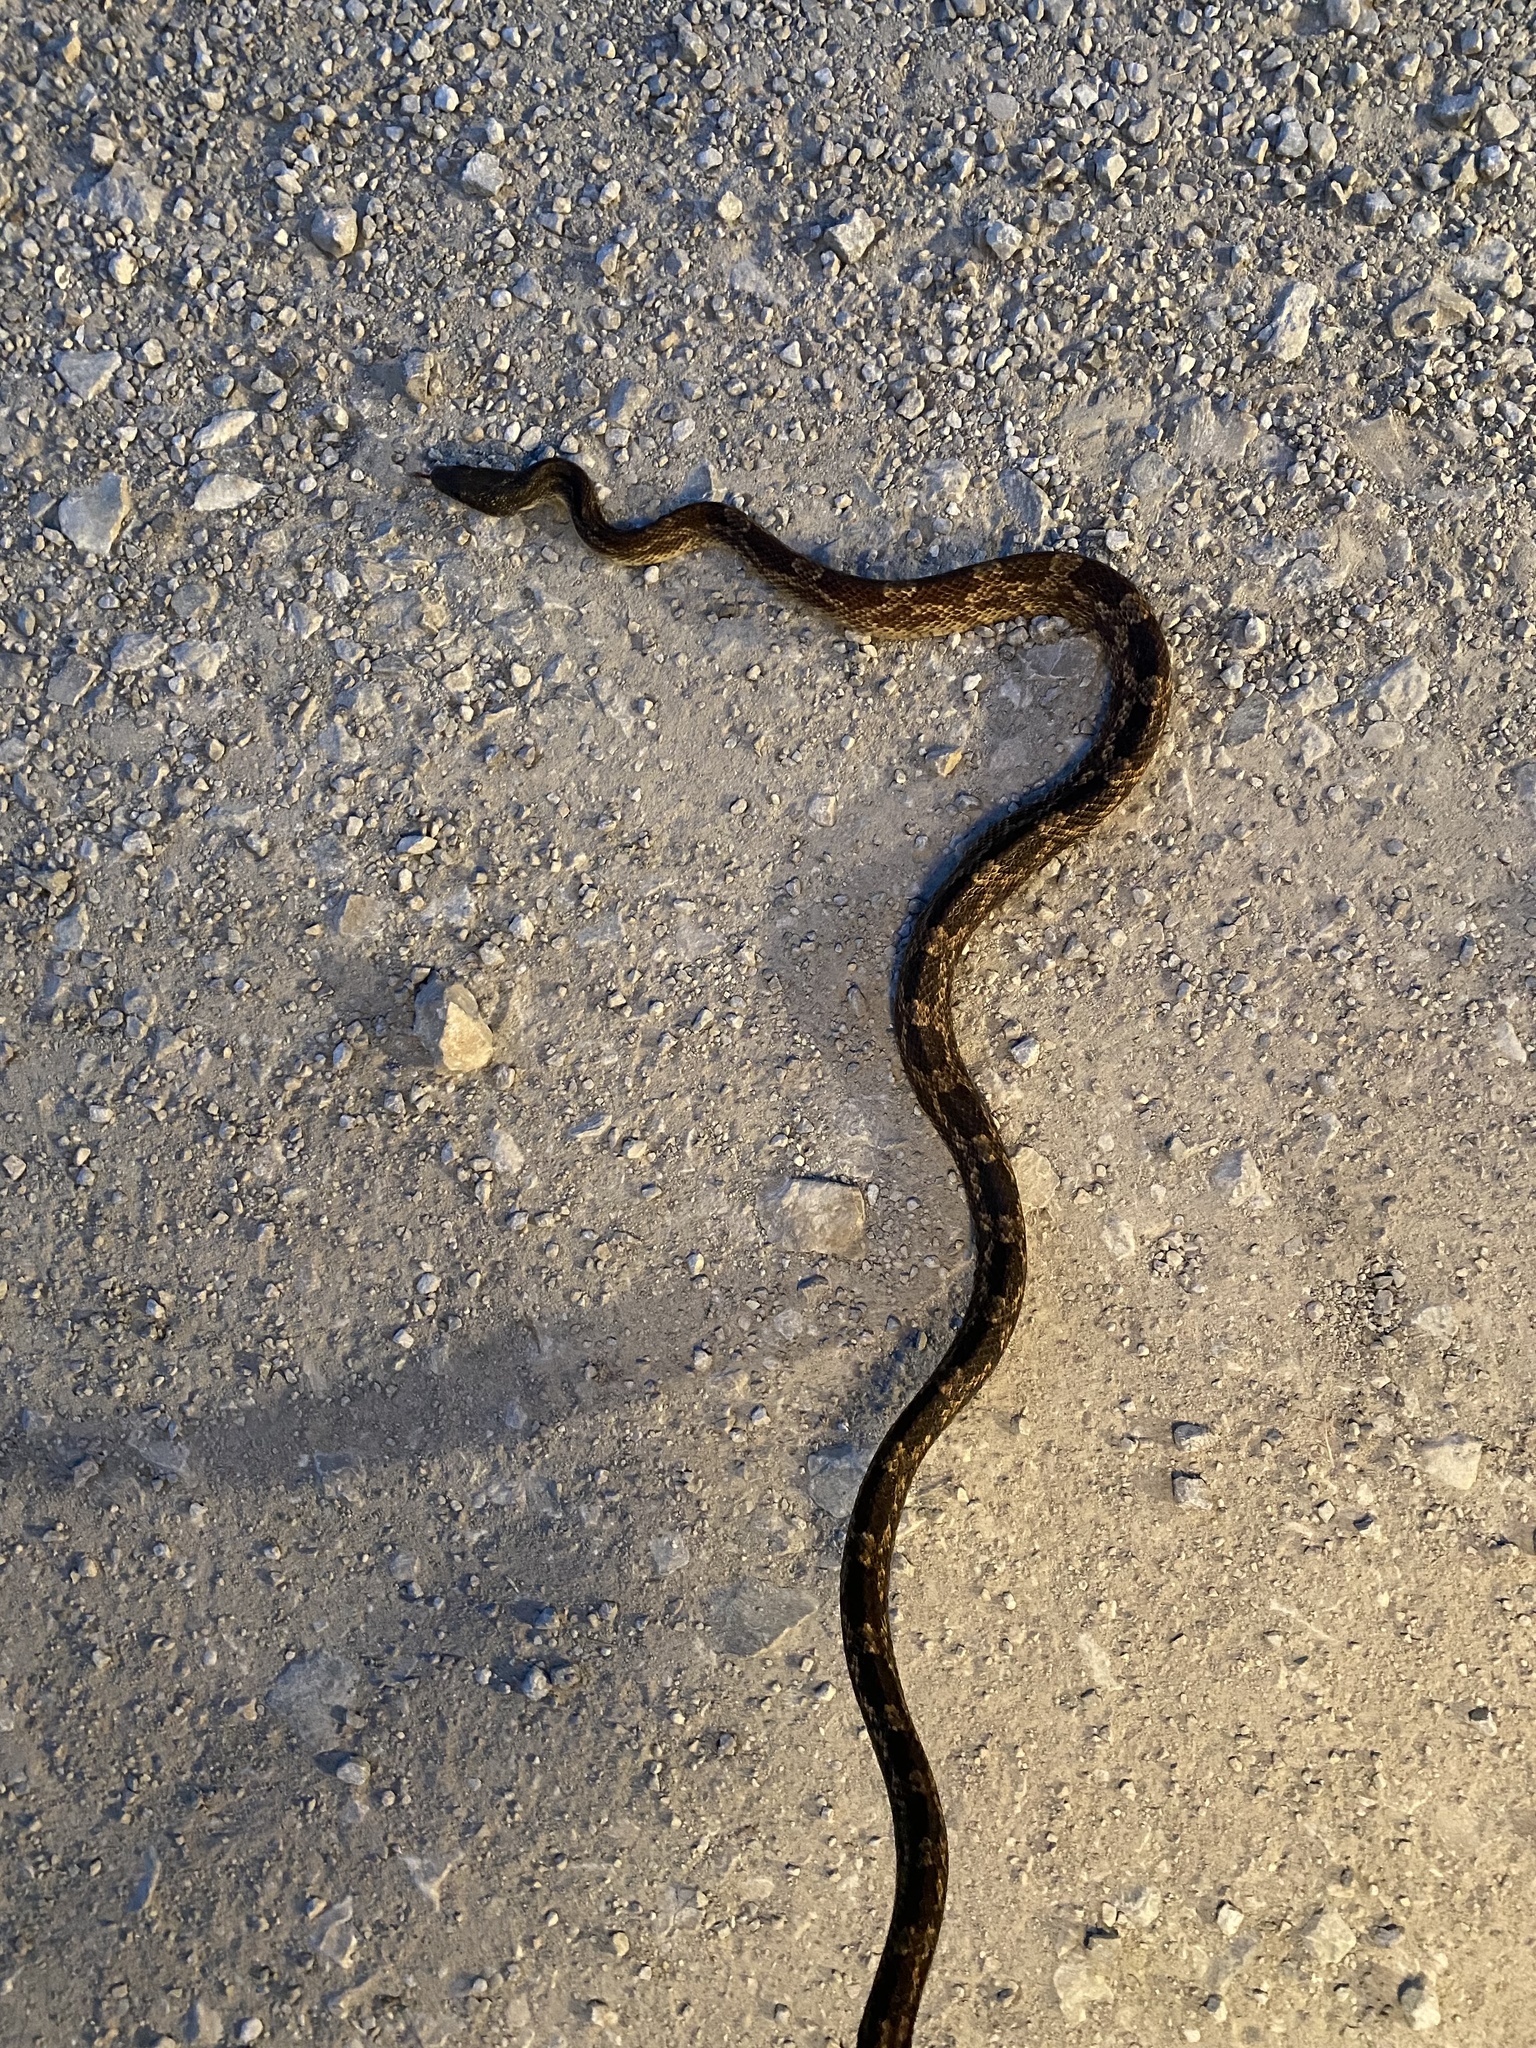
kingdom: Animalia
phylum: Chordata
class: Squamata
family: Colubridae
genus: Pantherophis
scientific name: Pantherophis obsoletus
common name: Black rat snake
